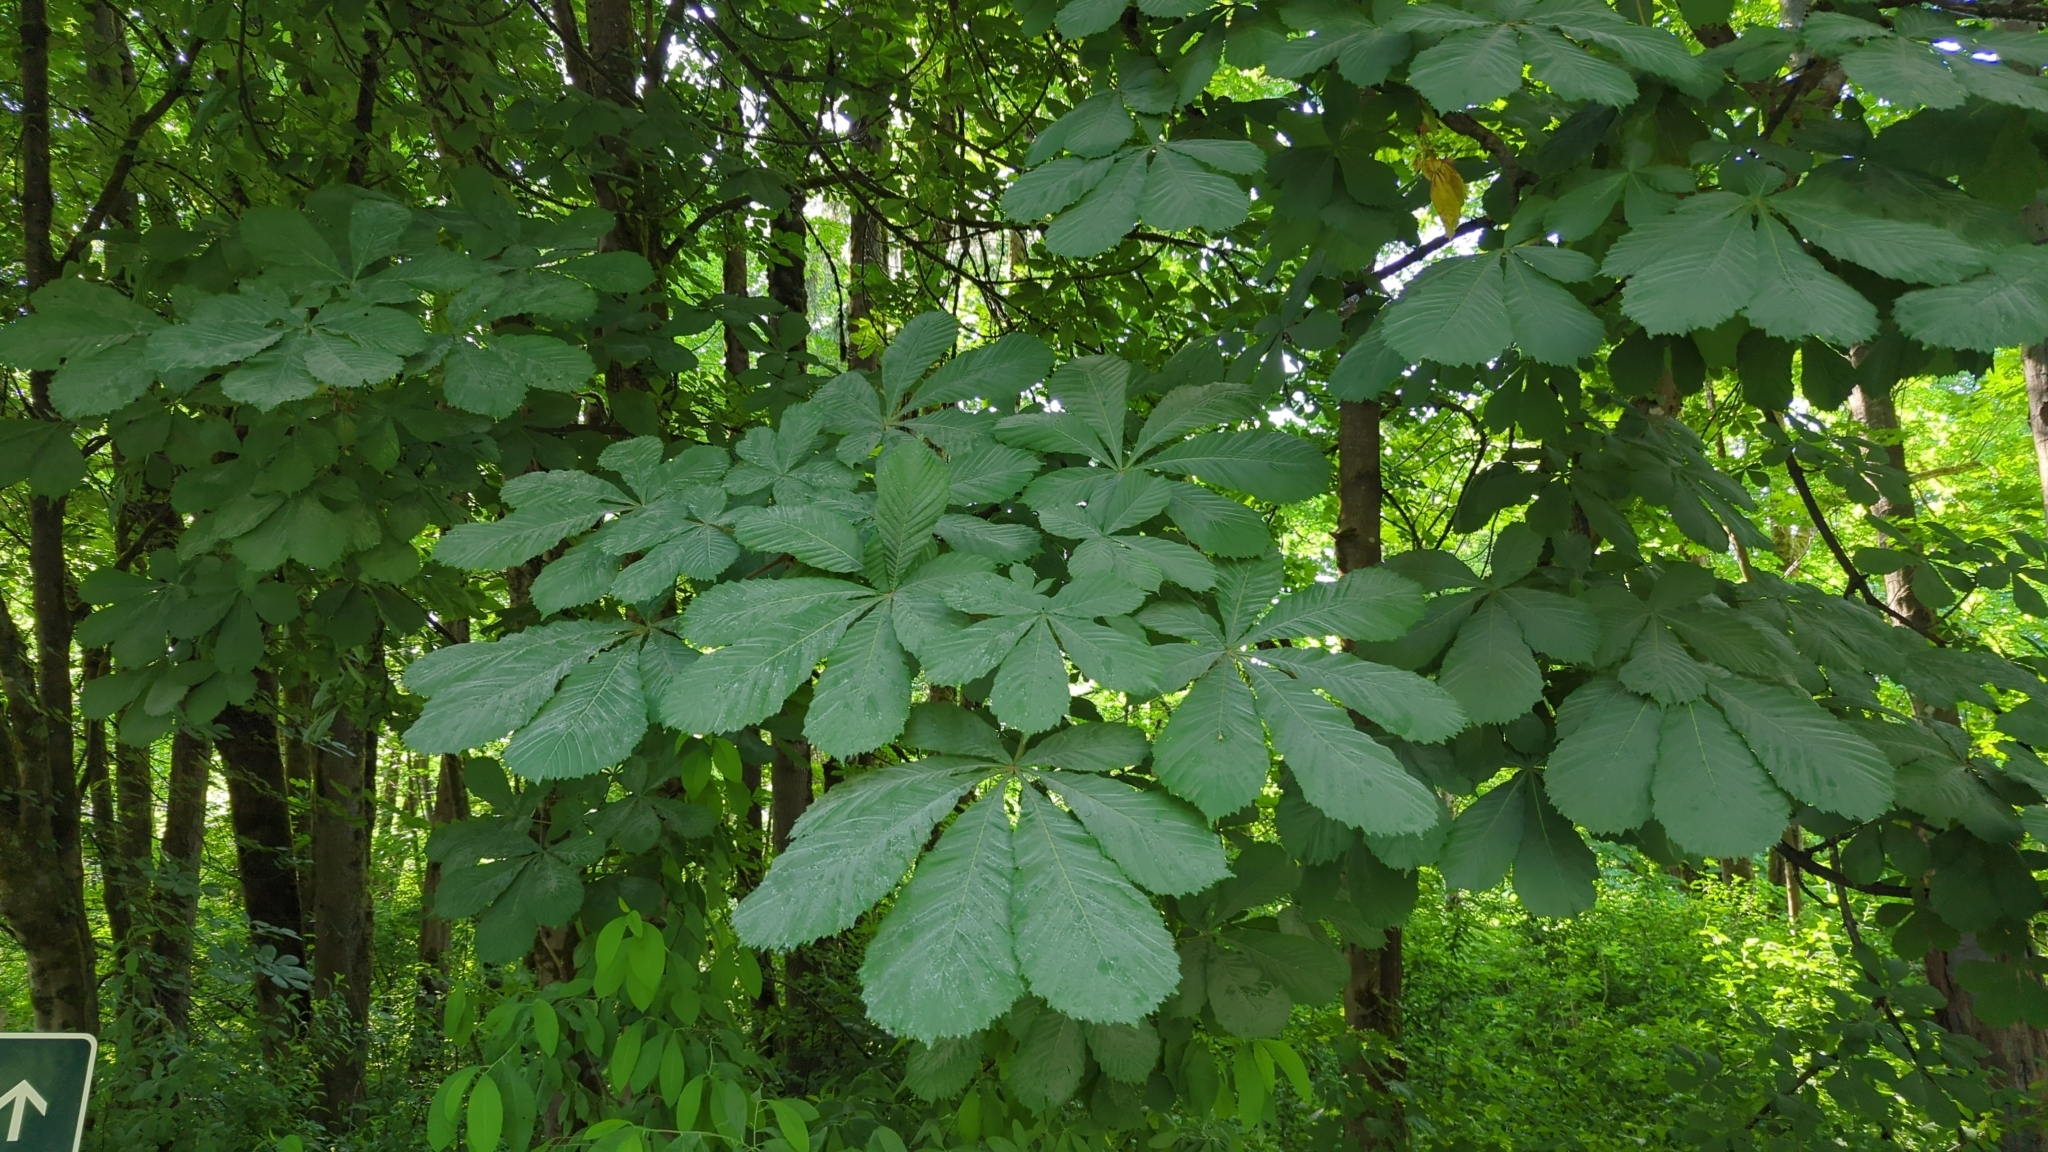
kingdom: Plantae
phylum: Tracheophyta
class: Magnoliopsida
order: Sapindales
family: Sapindaceae
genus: Aesculus
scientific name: Aesculus hippocastanum
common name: Horse-chestnut
